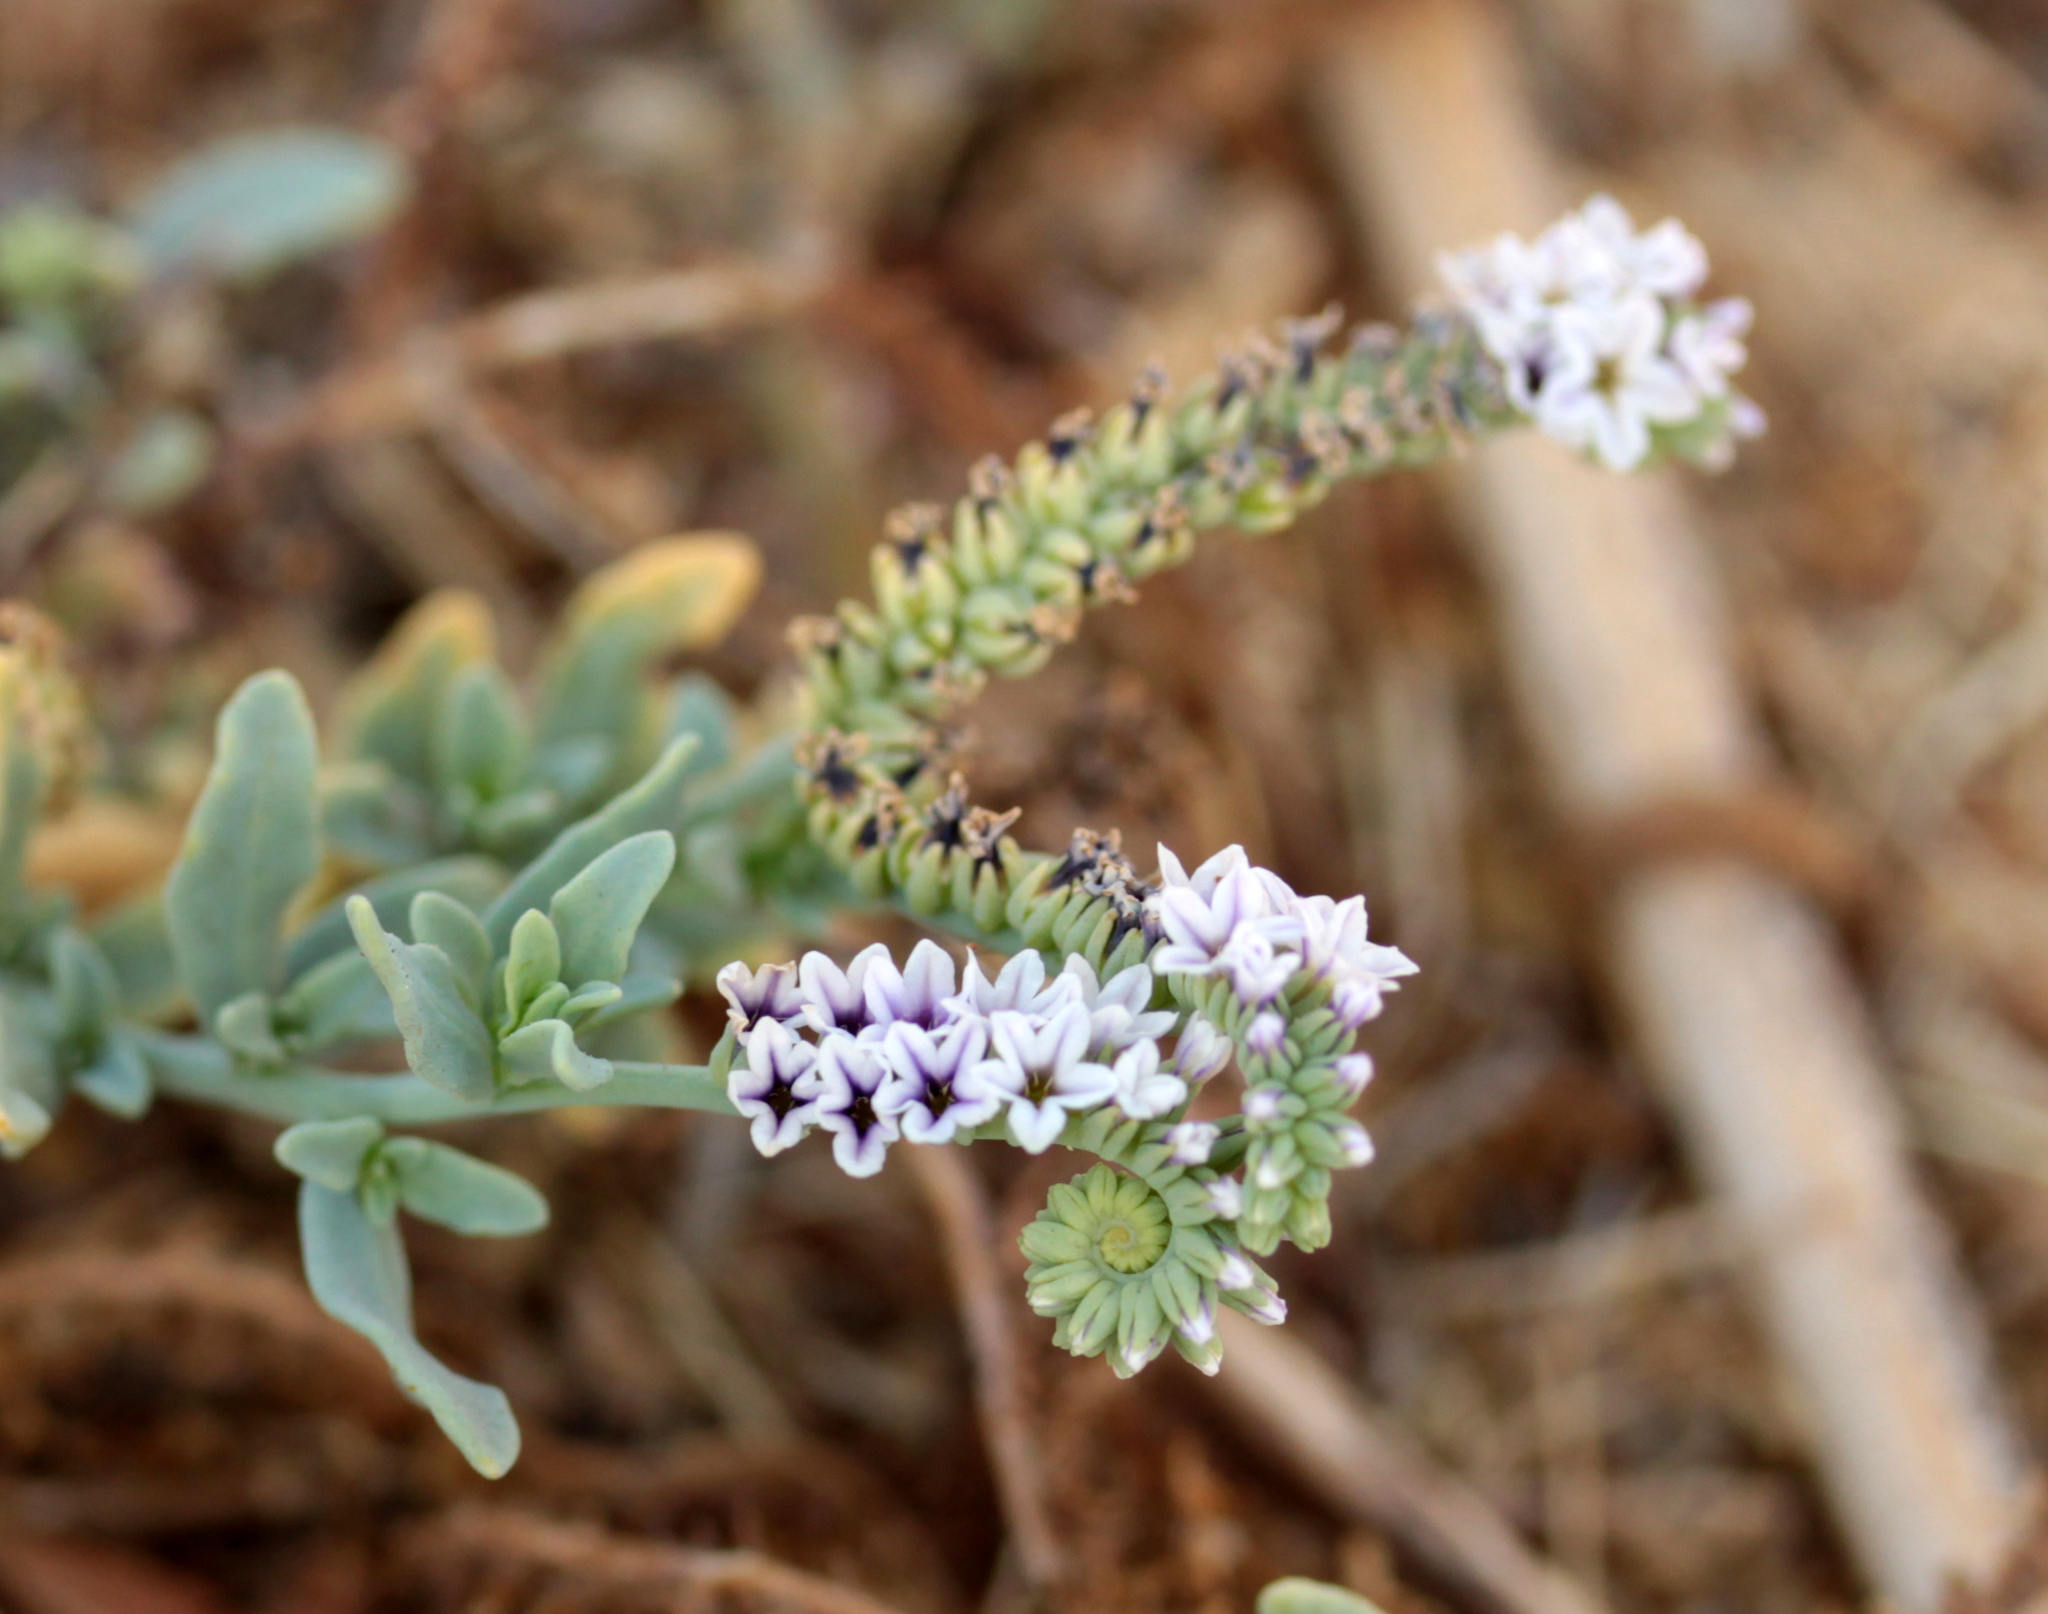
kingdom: Plantae
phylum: Tracheophyta
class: Magnoliopsida
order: Boraginales
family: Heliotropiaceae
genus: Heliotropium
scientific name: Heliotropium curassavicum
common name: Seaside heliotrope
